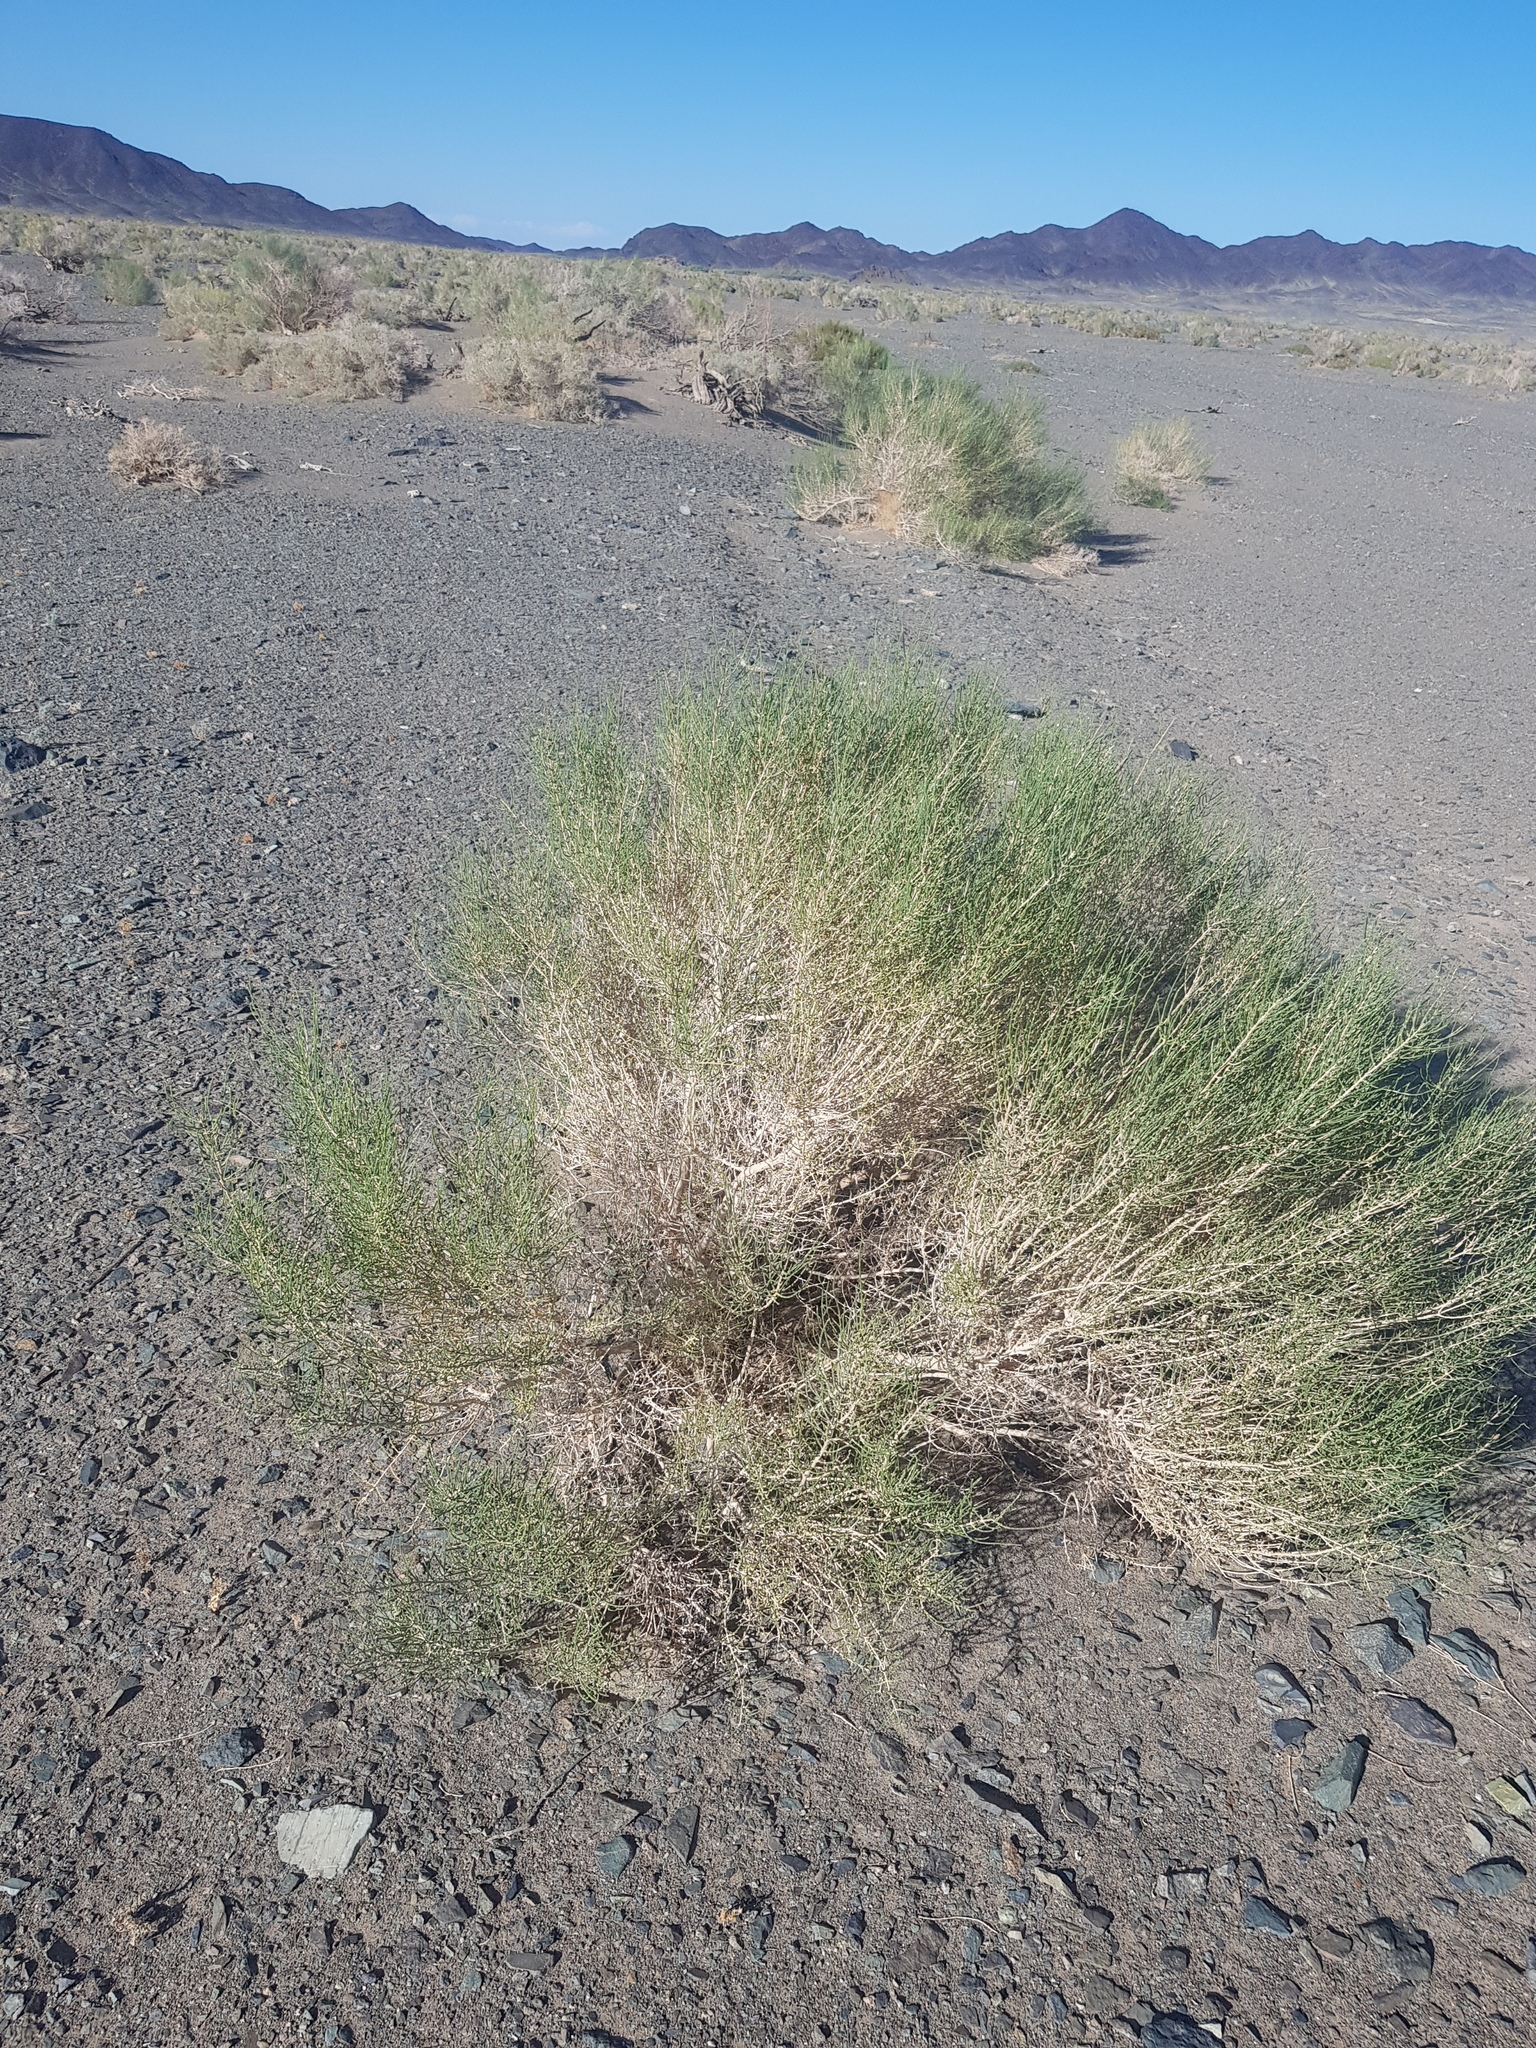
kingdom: Plantae
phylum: Tracheophyta
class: Magnoliopsida
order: Caryophyllales
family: Amaranthaceae
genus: Haloxylon
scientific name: Haloxylon ammodendron
